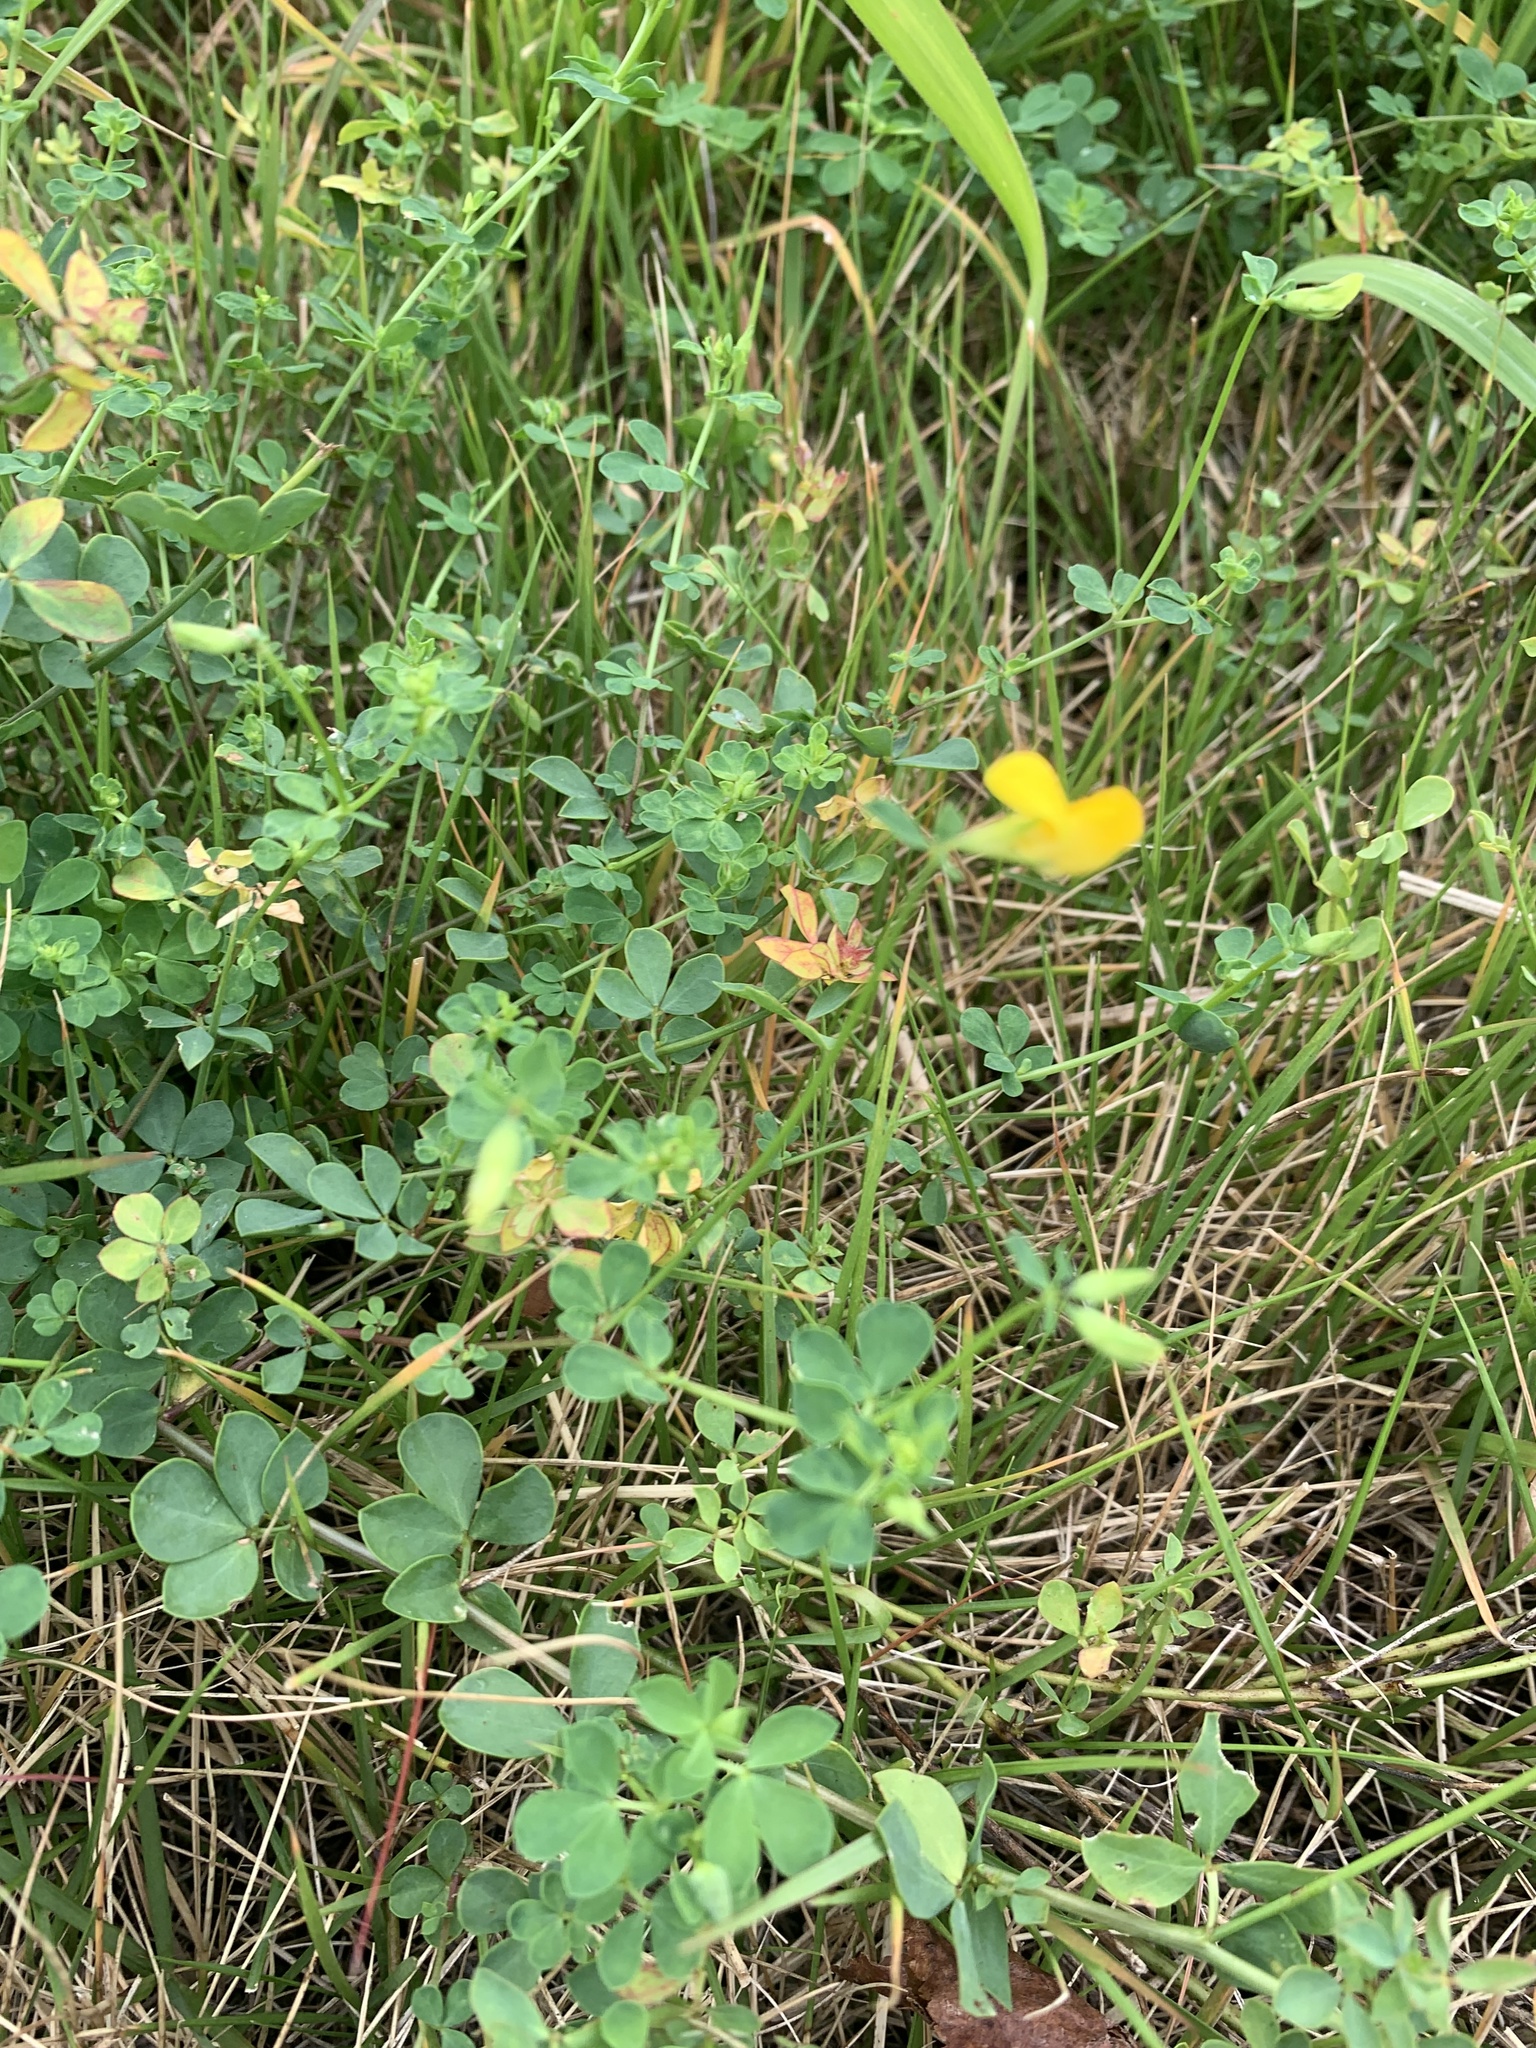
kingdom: Plantae
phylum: Tracheophyta
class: Magnoliopsida
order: Fabales
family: Fabaceae
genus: Lotus
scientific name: Lotus japonicus
